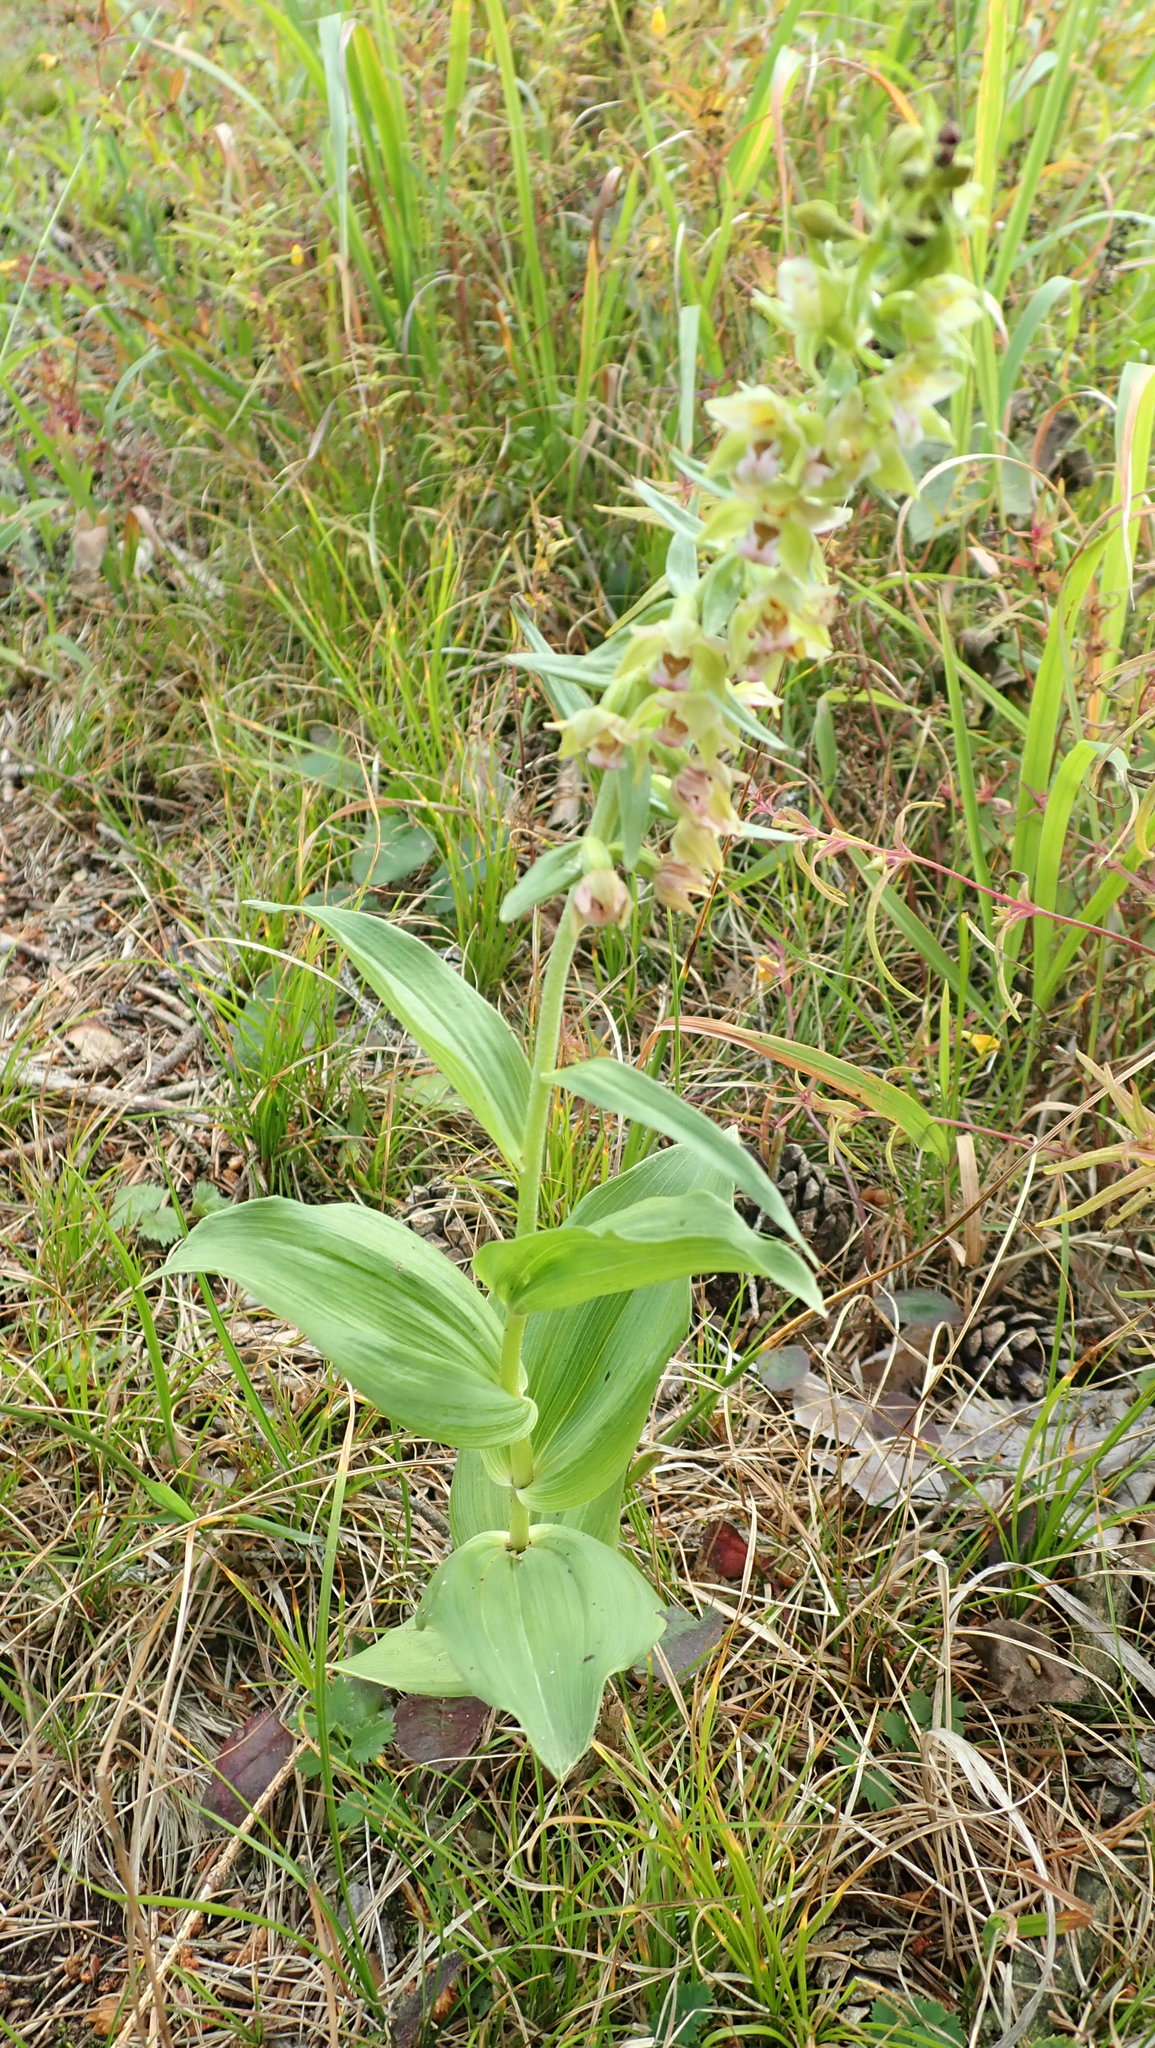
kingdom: Plantae
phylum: Tracheophyta
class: Liliopsida
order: Asparagales
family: Orchidaceae
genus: Epipactis
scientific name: Epipactis helleborine
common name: Broad-leaved helleborine
